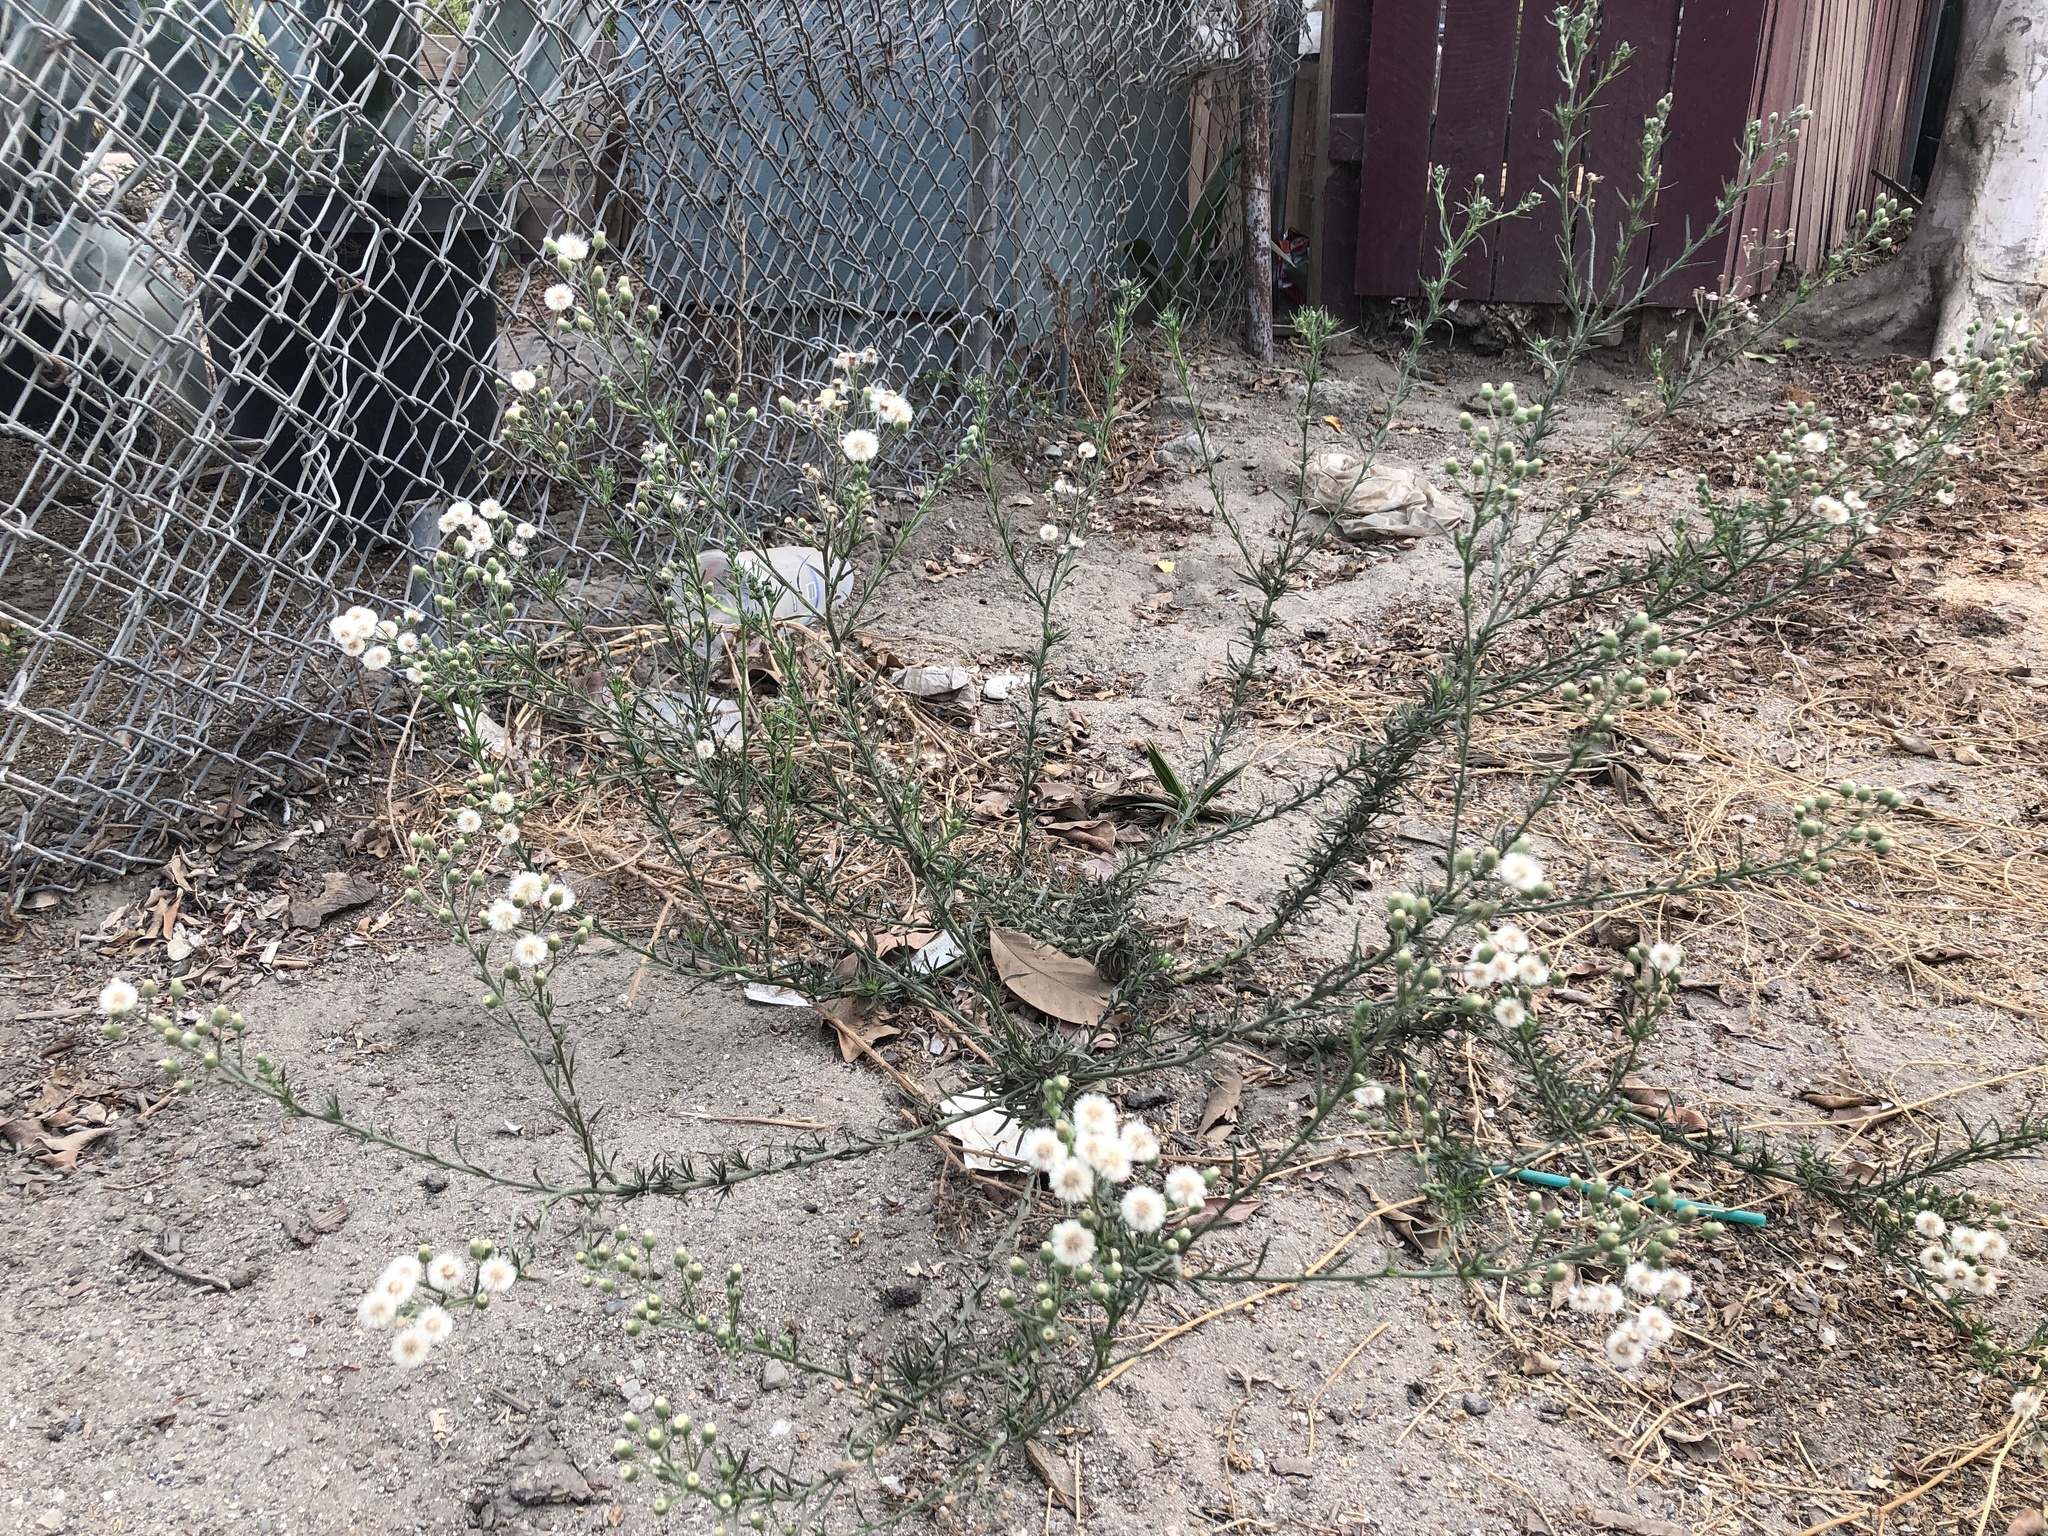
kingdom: Plantae
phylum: Tracheophyta
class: Magnoliopsida
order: Asterales
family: Asteraceae
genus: Erigeron
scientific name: Erigeron bonariensis
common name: Argentine fleabane
